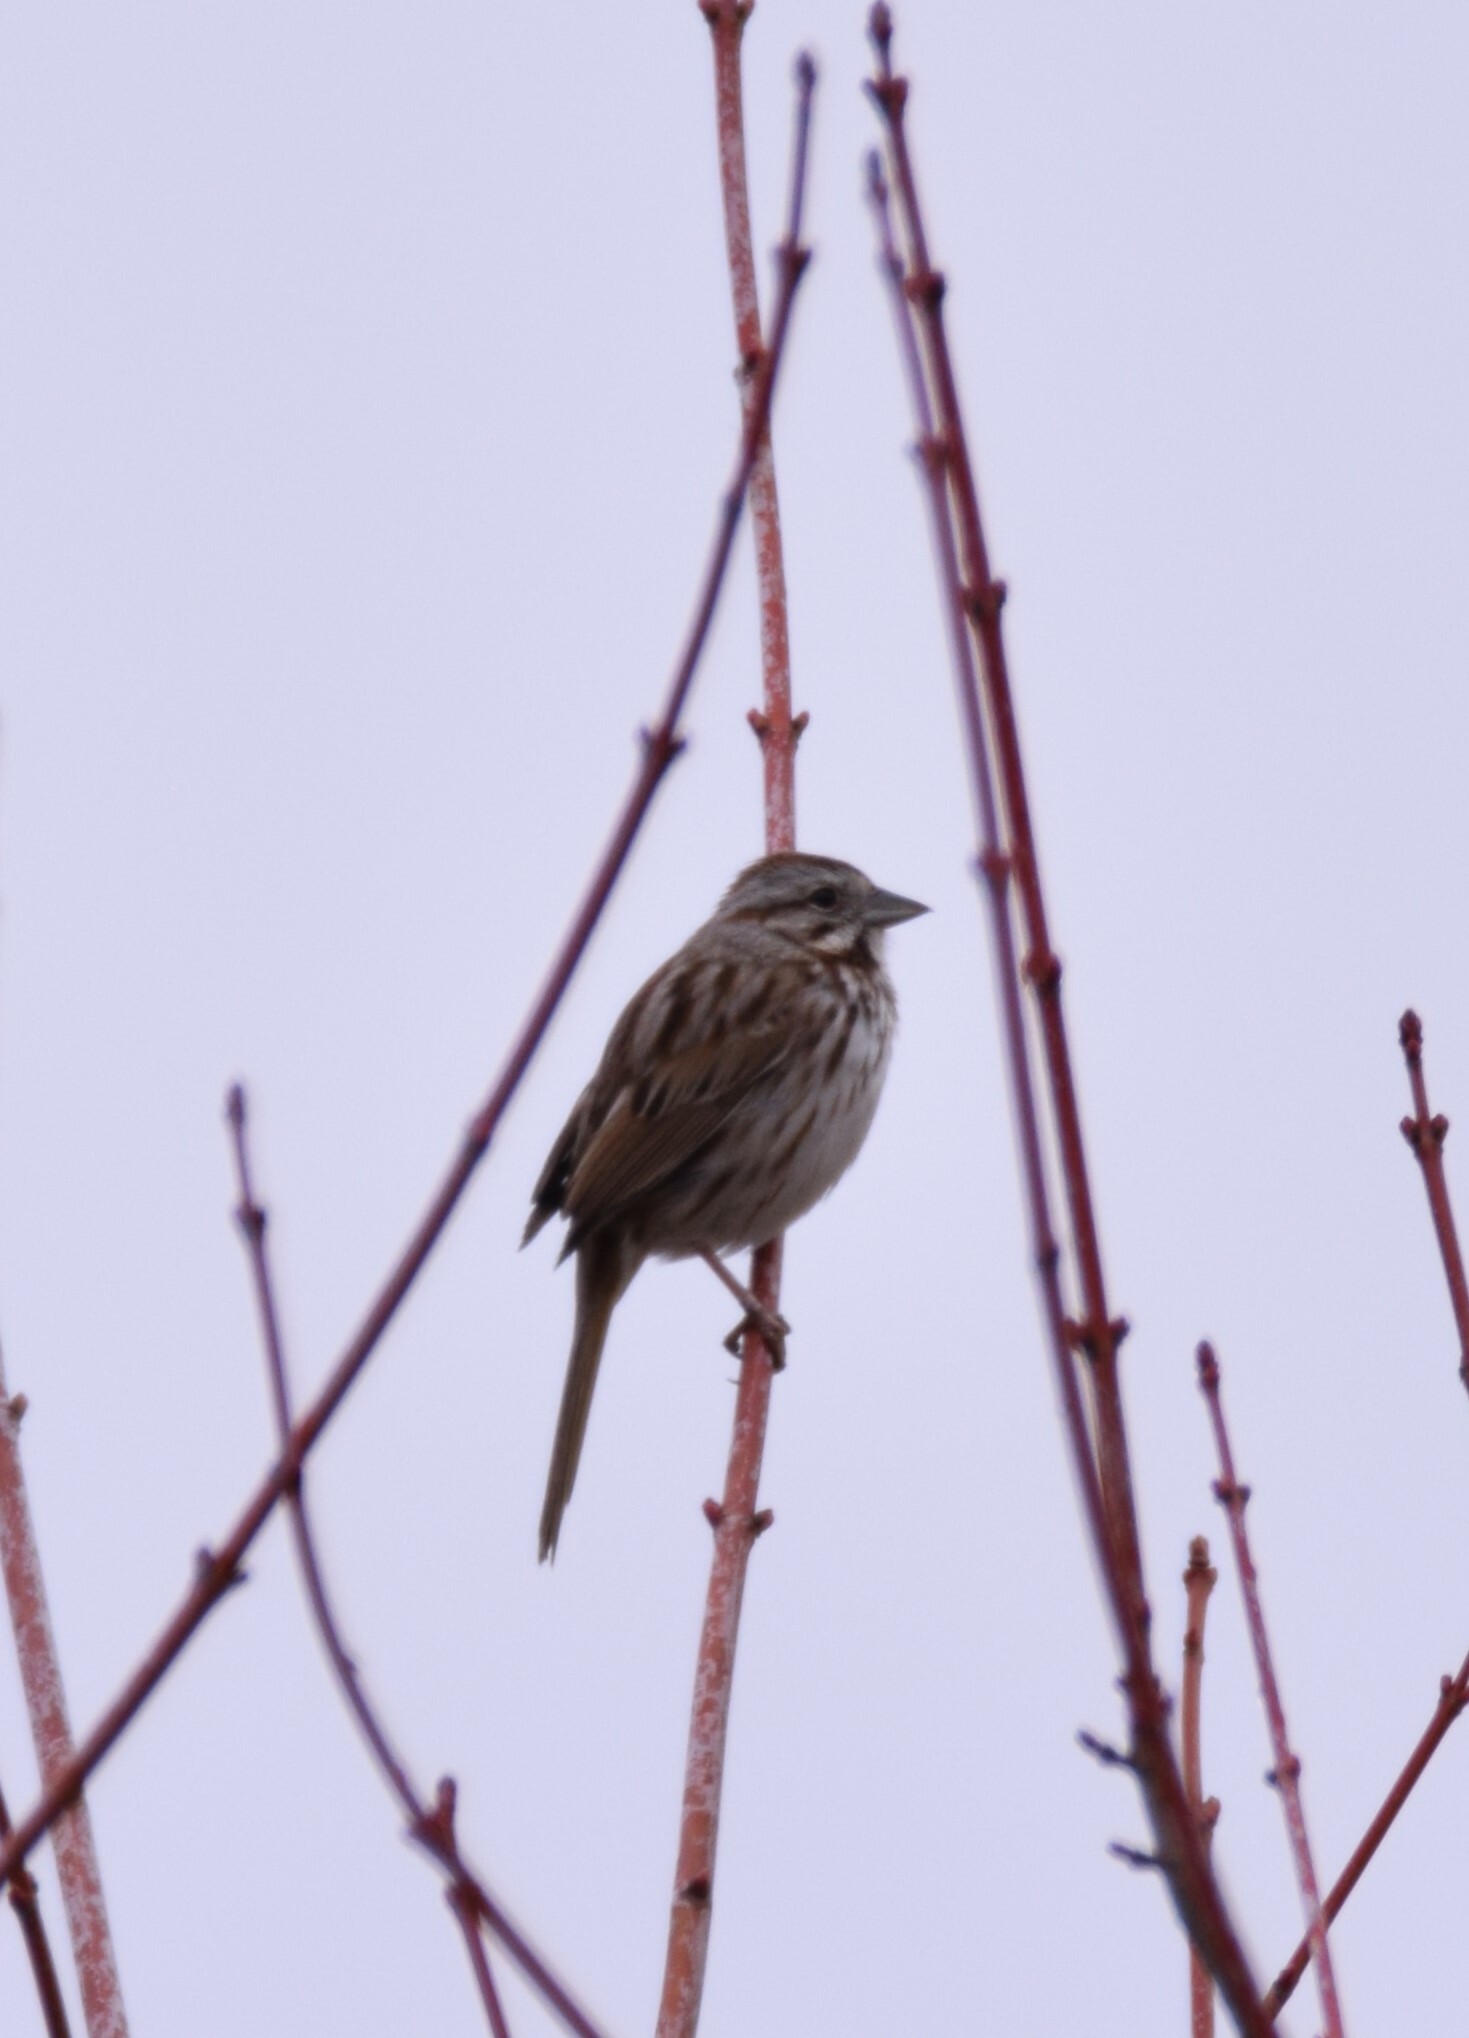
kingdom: Animalia
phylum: Chordata
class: Aves
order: Passeriformes
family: Passerellidae
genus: Melospiza
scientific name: Melospiza melodia
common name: Song sparrow
